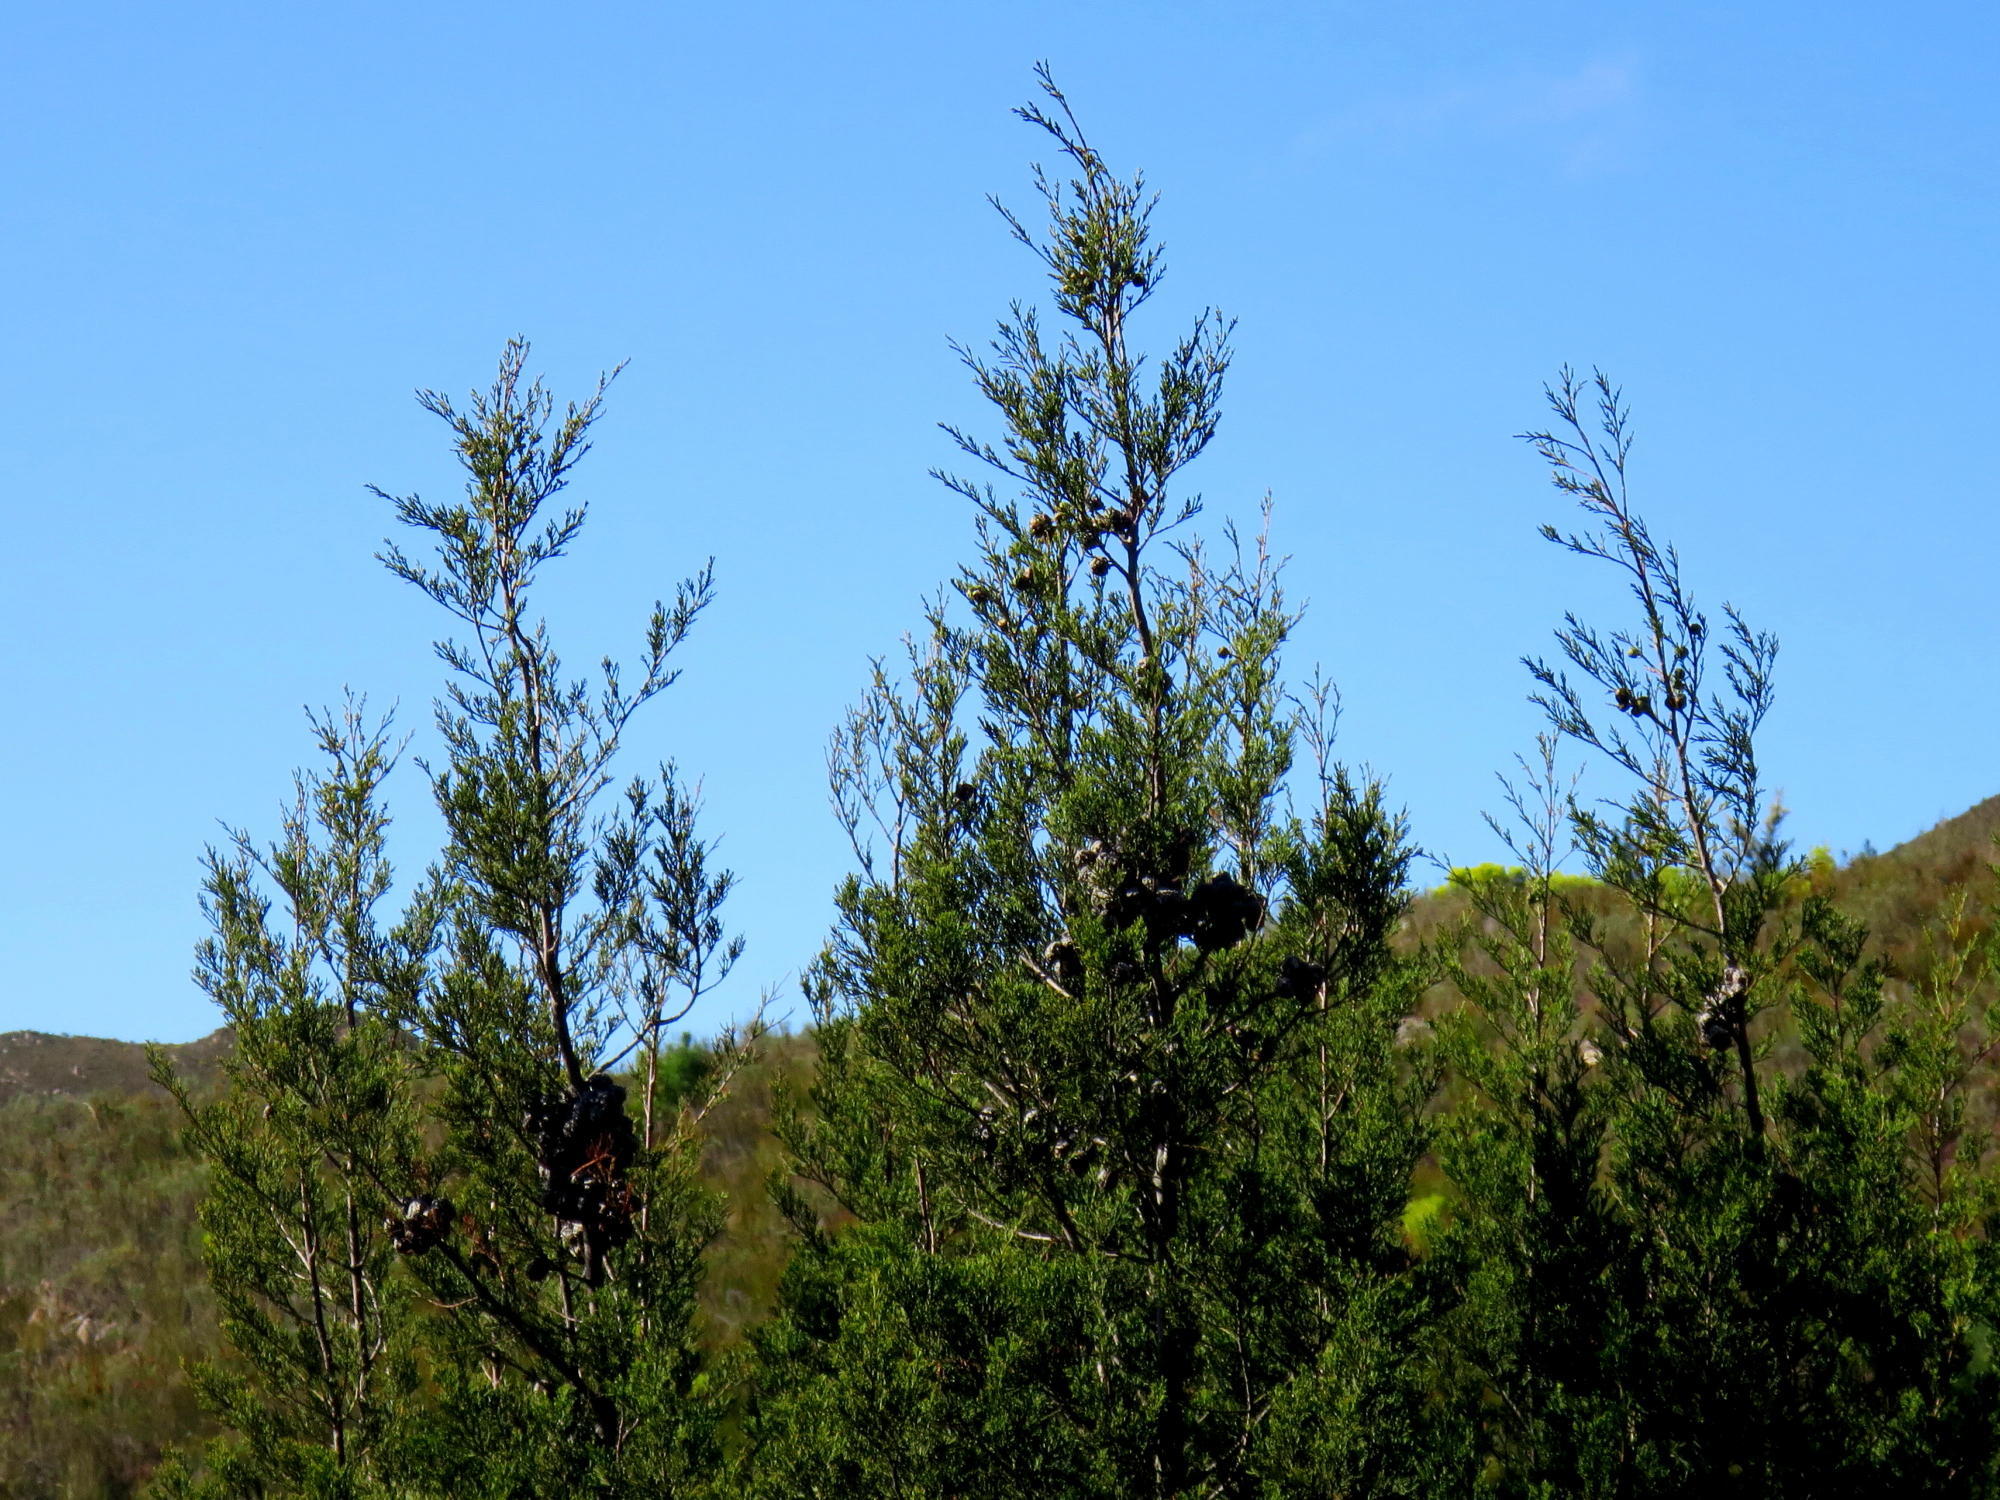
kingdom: Plantae
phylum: Tracheophyta
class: Pinopsida
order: Pinales
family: Cupressaceae
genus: Widdringtonia
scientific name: Widdringtonia nodiflora
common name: Cape cypress
